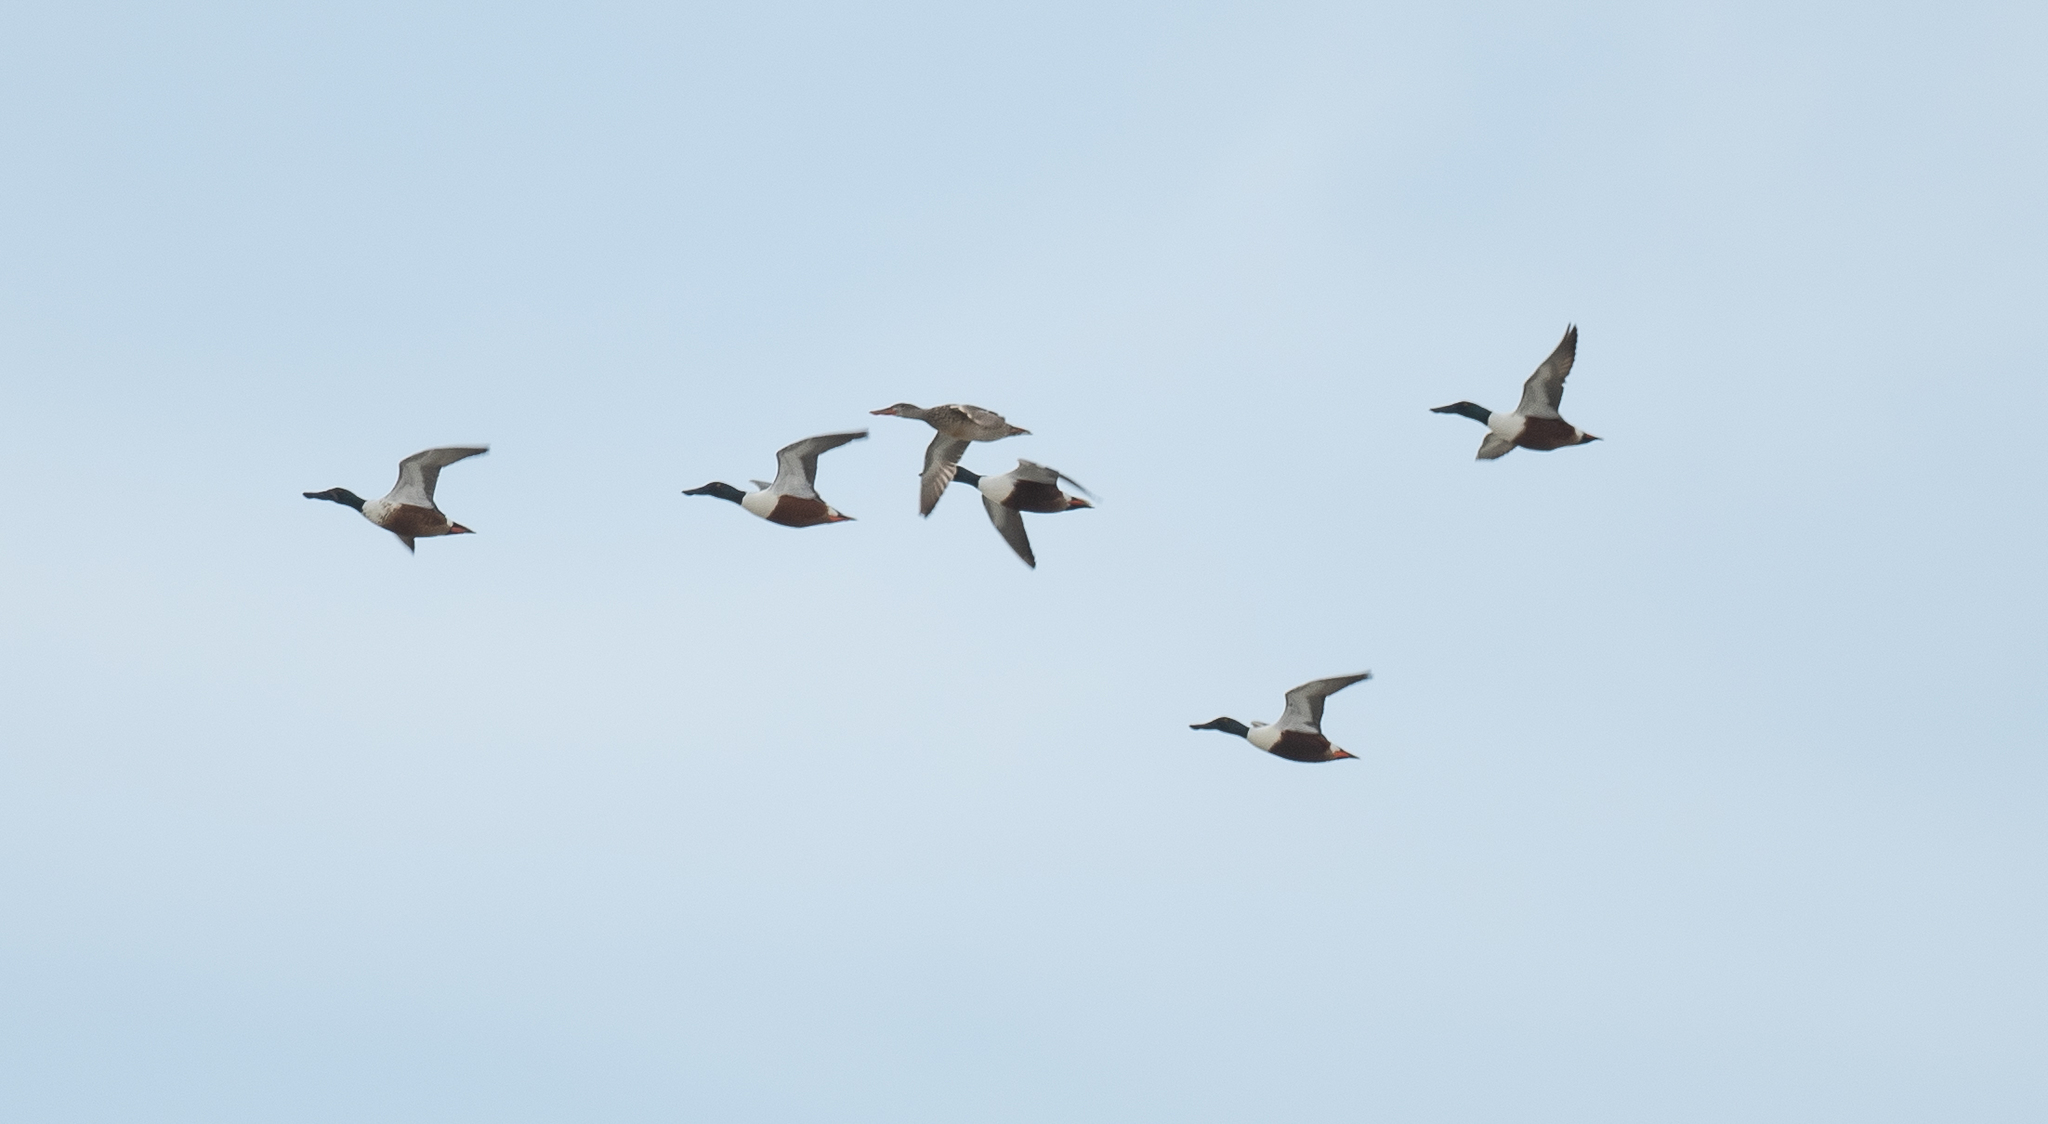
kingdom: Animalia
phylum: Chordata
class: Aves
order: Anseriformes
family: Anatidae
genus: Spatula
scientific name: Spatula clypeata
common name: Northern shoveler
